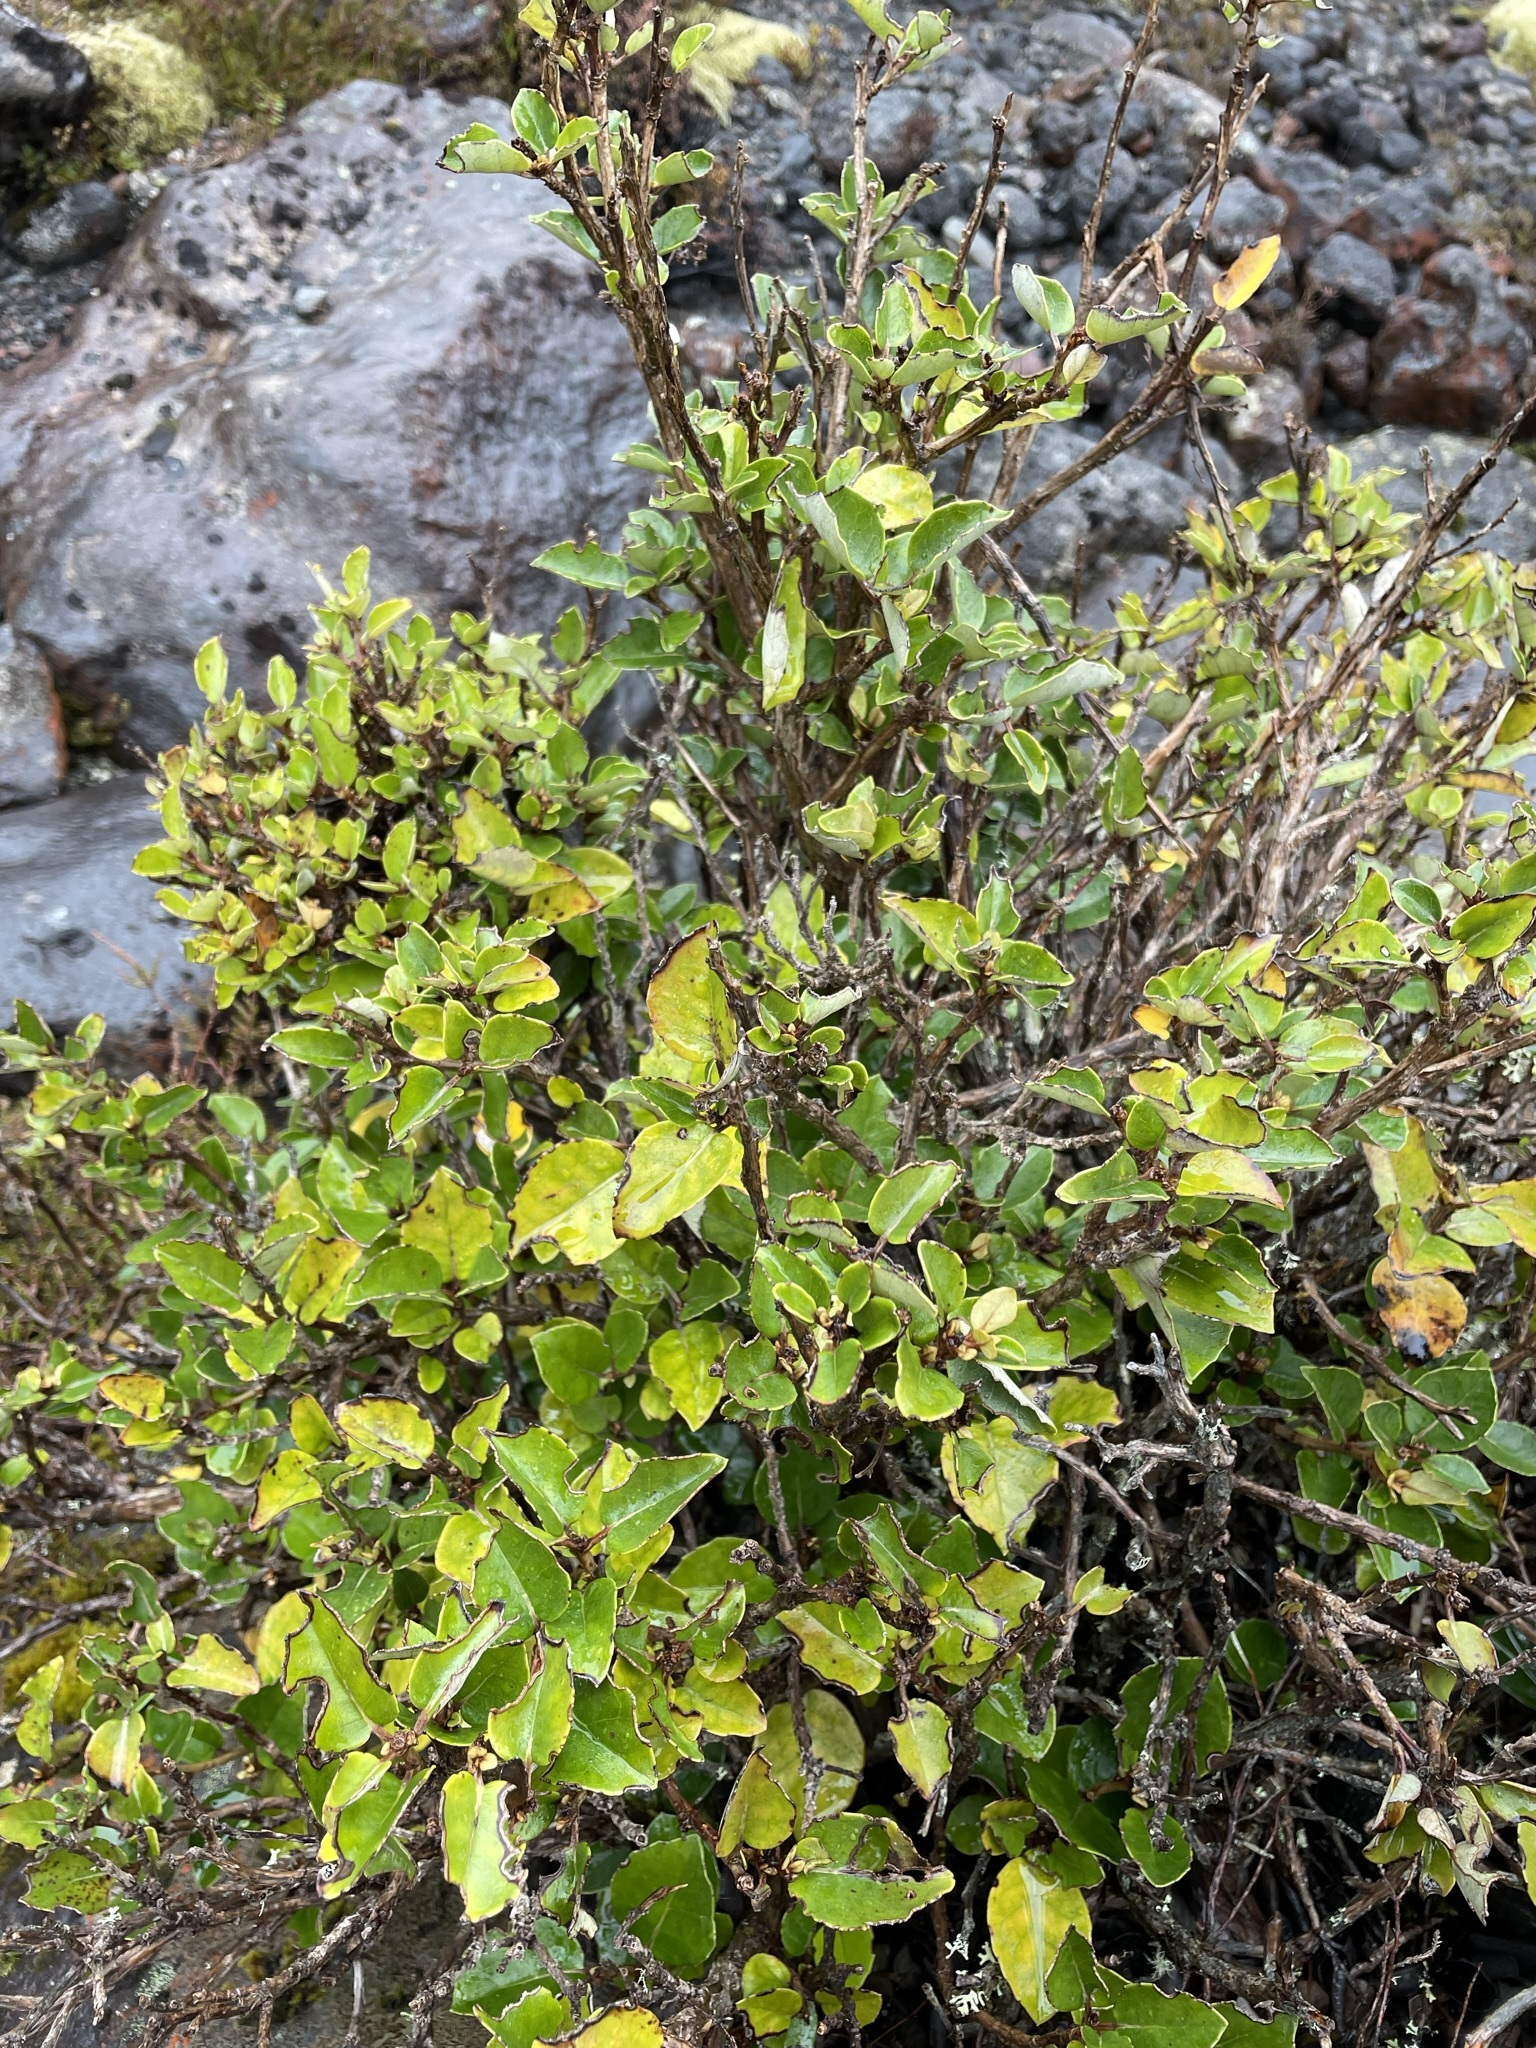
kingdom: Plantae
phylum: Tracheophyta
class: Magnoliopsida
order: Asterales
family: Asteraceae
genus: Olearia
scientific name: Olearia arborescens
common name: Glossy tree daisy
